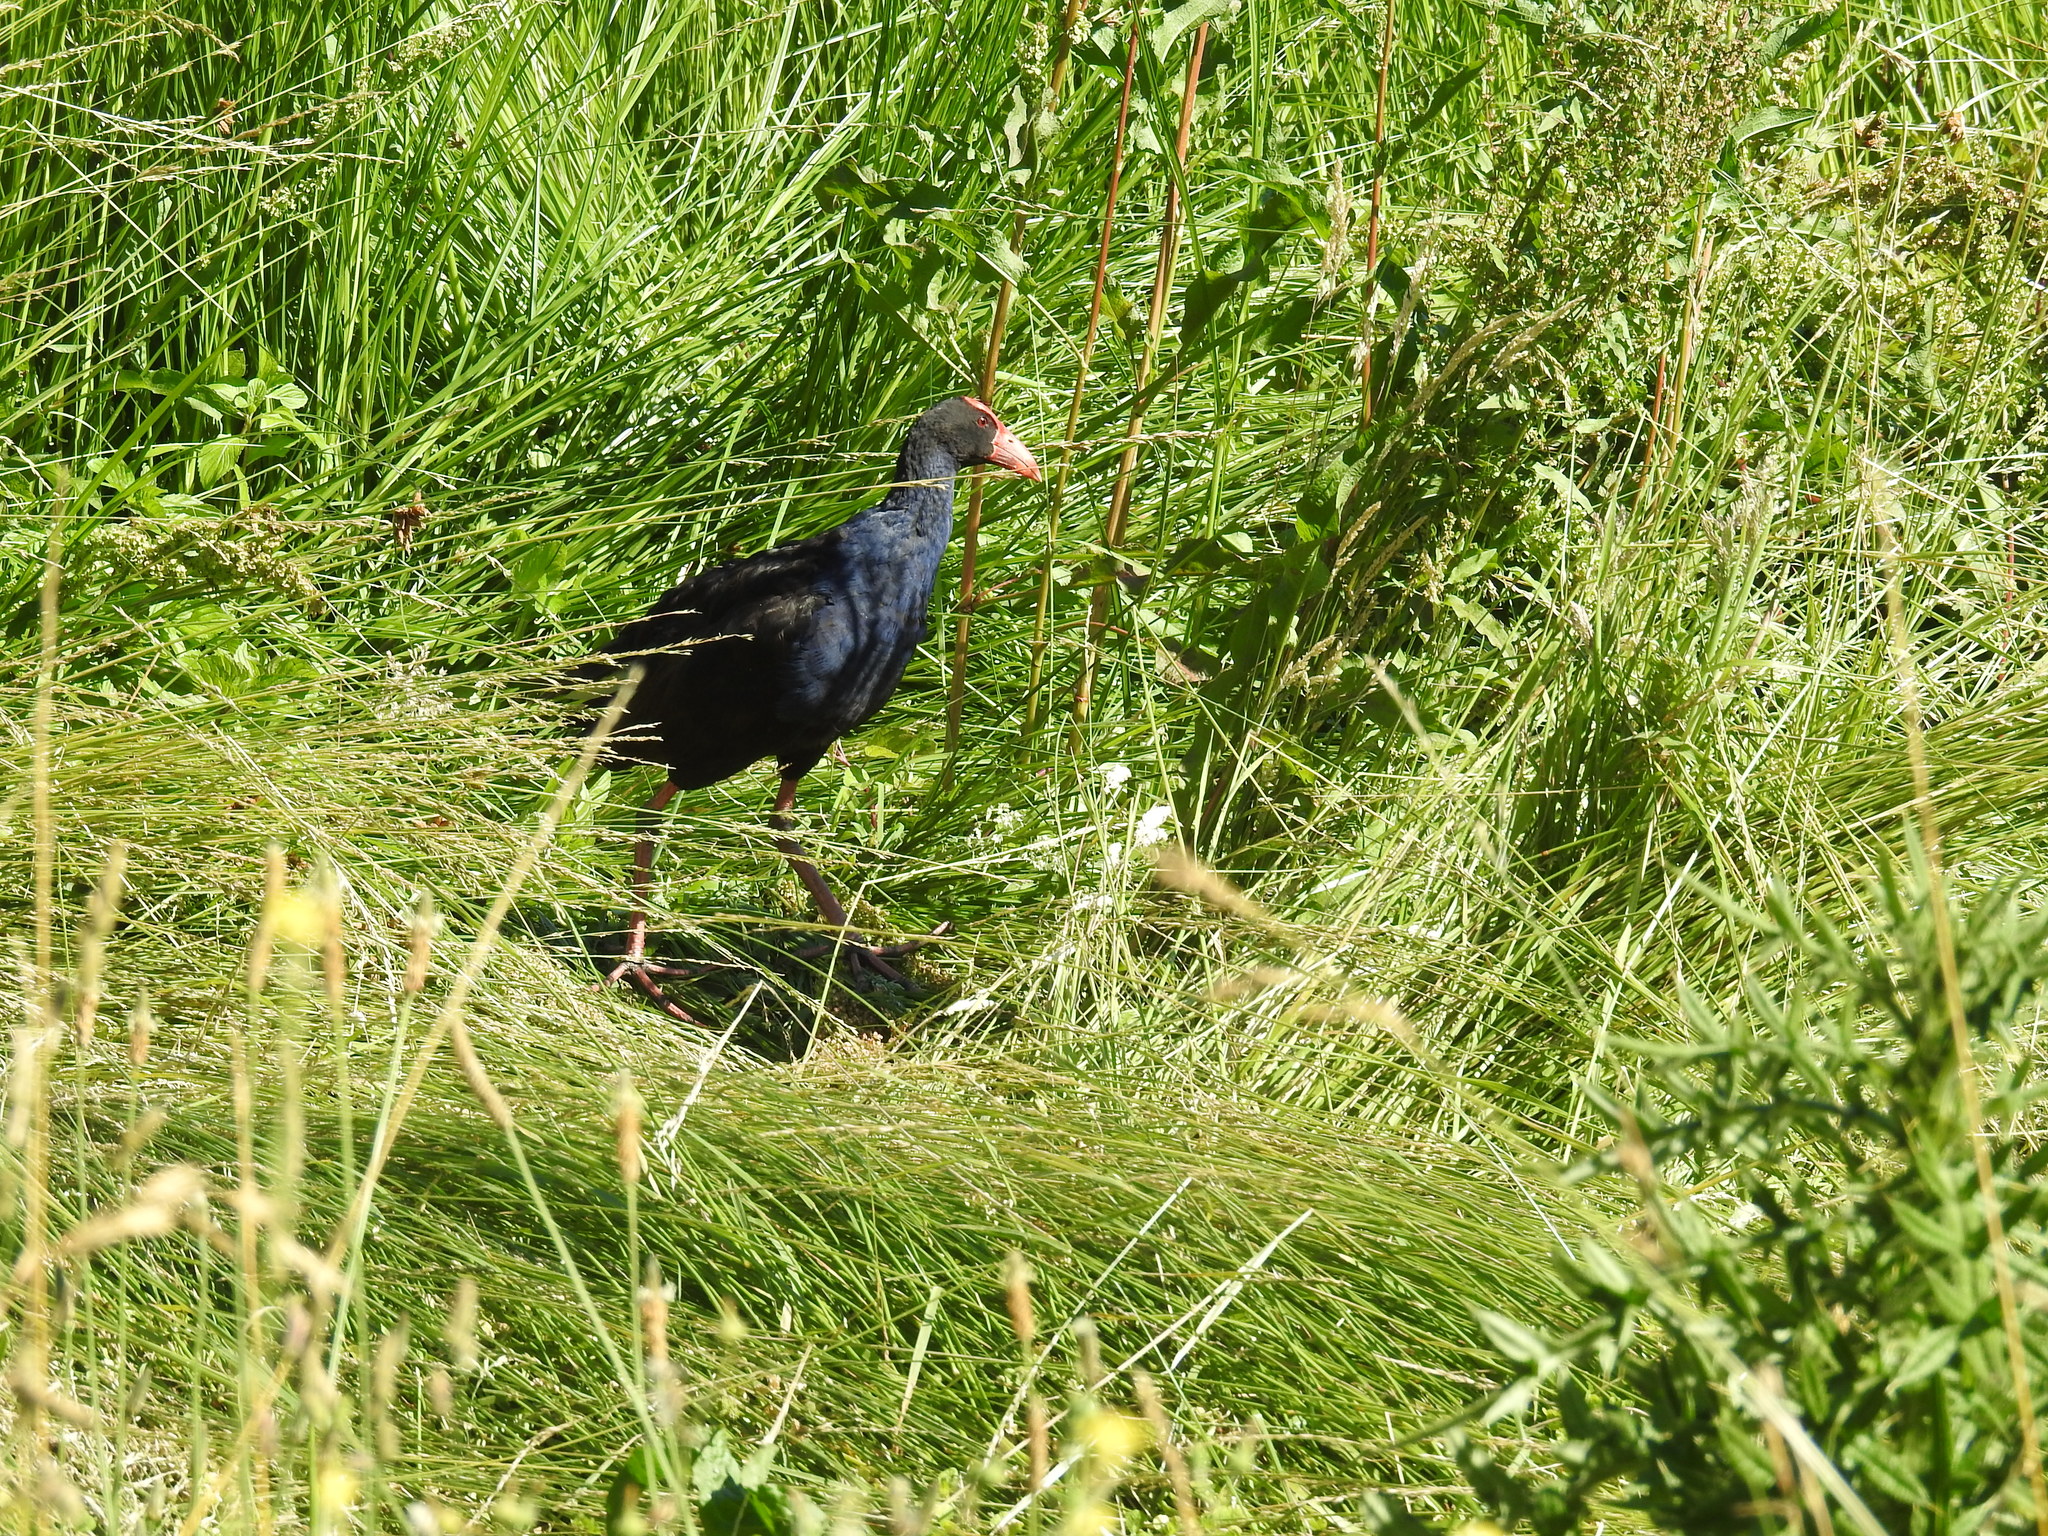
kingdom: Animalia
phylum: Chordata
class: Aves
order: Gruiformes
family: Rallidae
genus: Porphyrio
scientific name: Porphyrio melanotus
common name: Australasian swamphen
